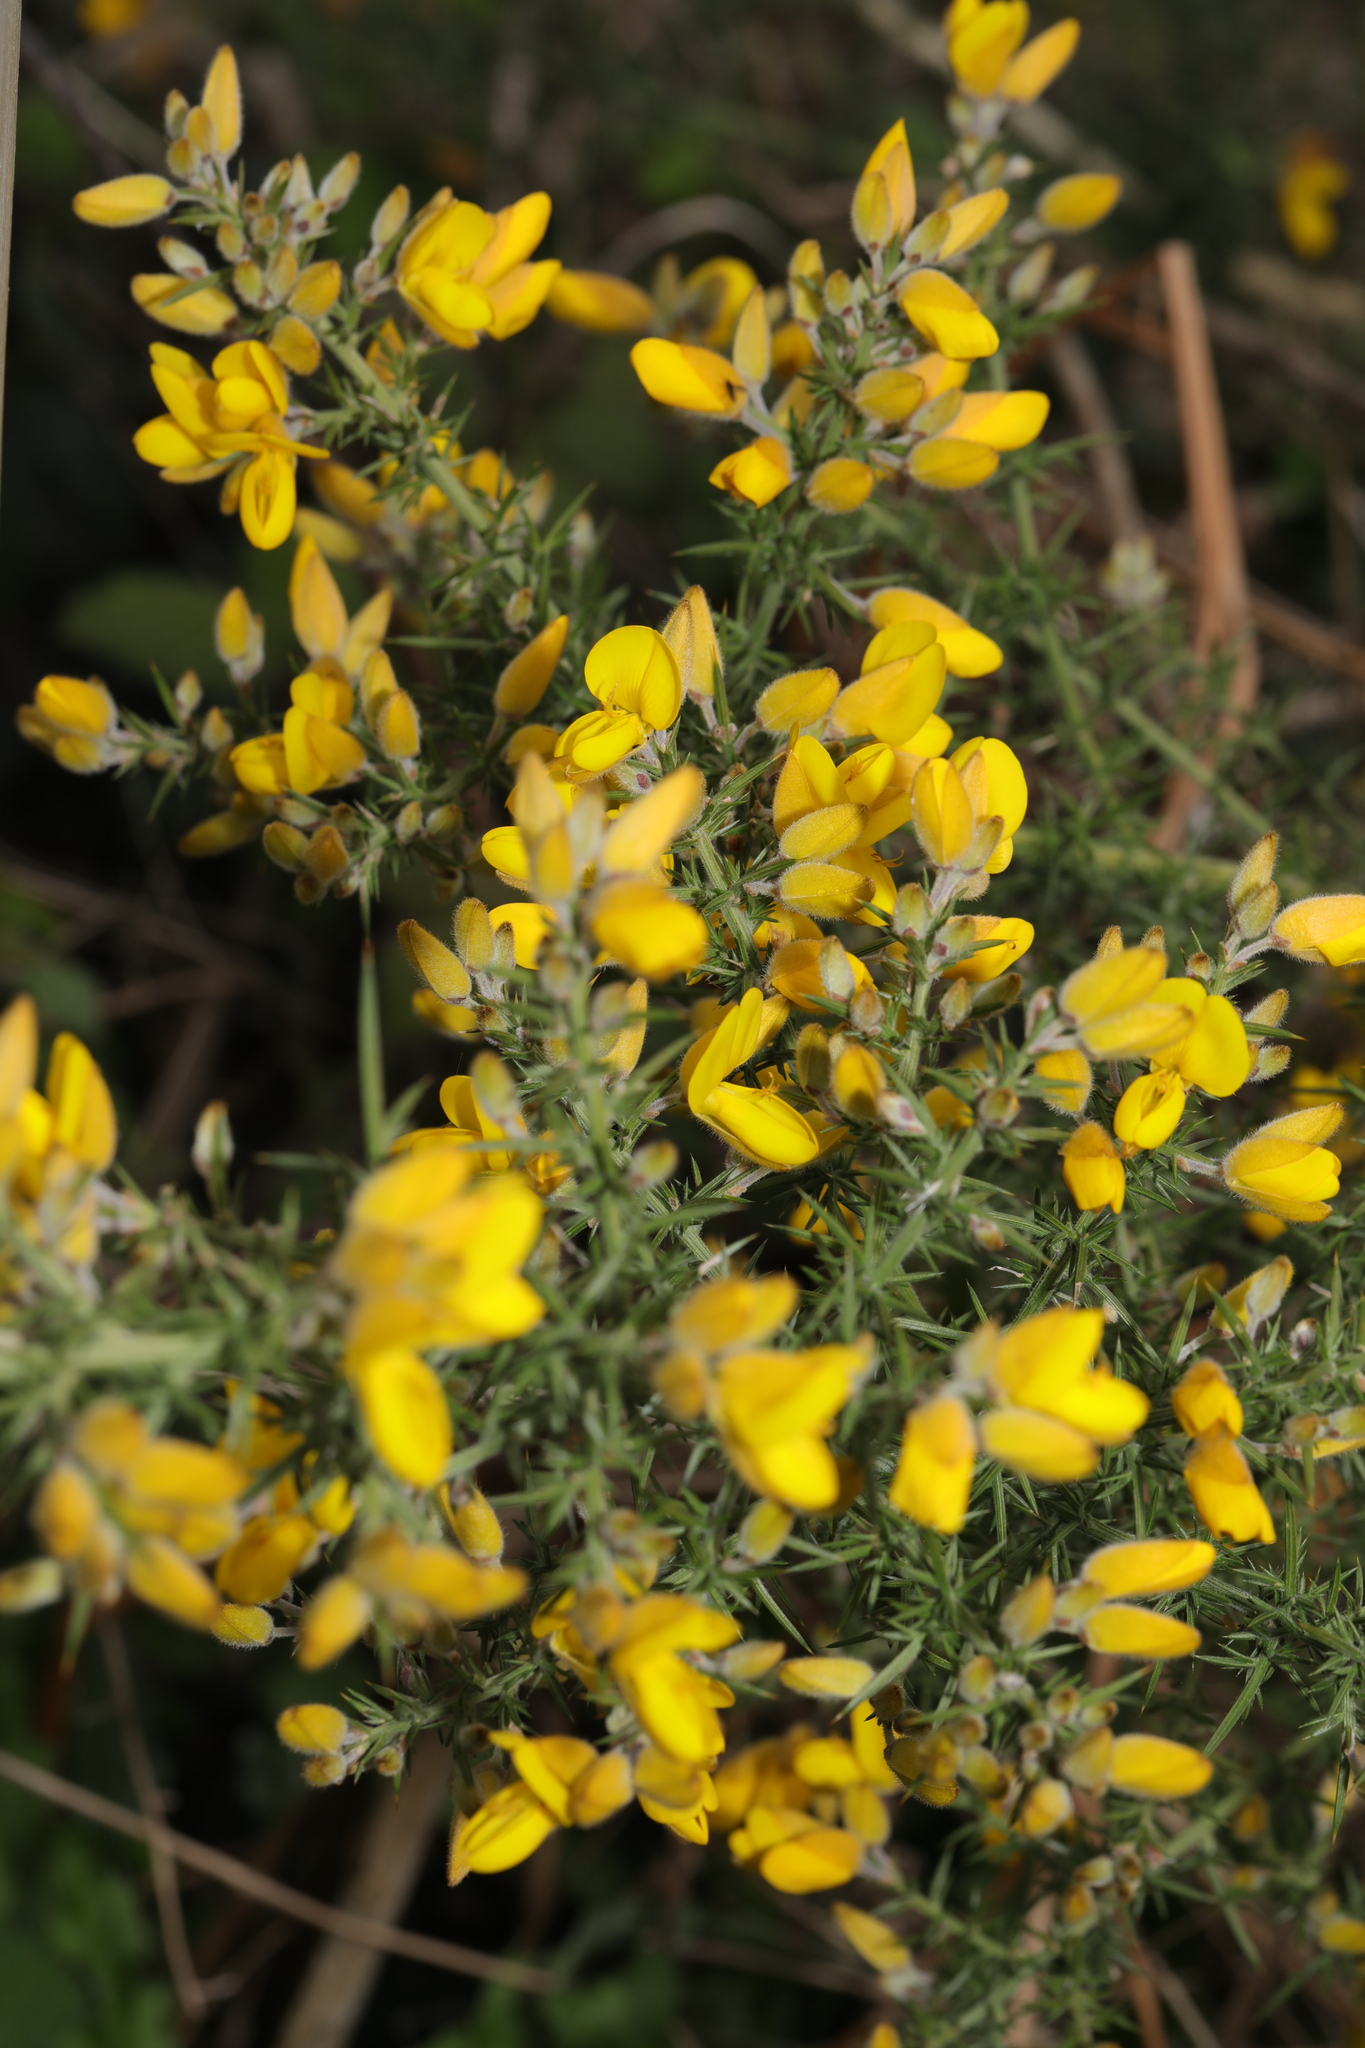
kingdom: Plantae
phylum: Tracheophyta
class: Magnoliopsida
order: Fabales
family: Fabaceae
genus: Ulex
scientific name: Ulex europaeus
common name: Common gorse
